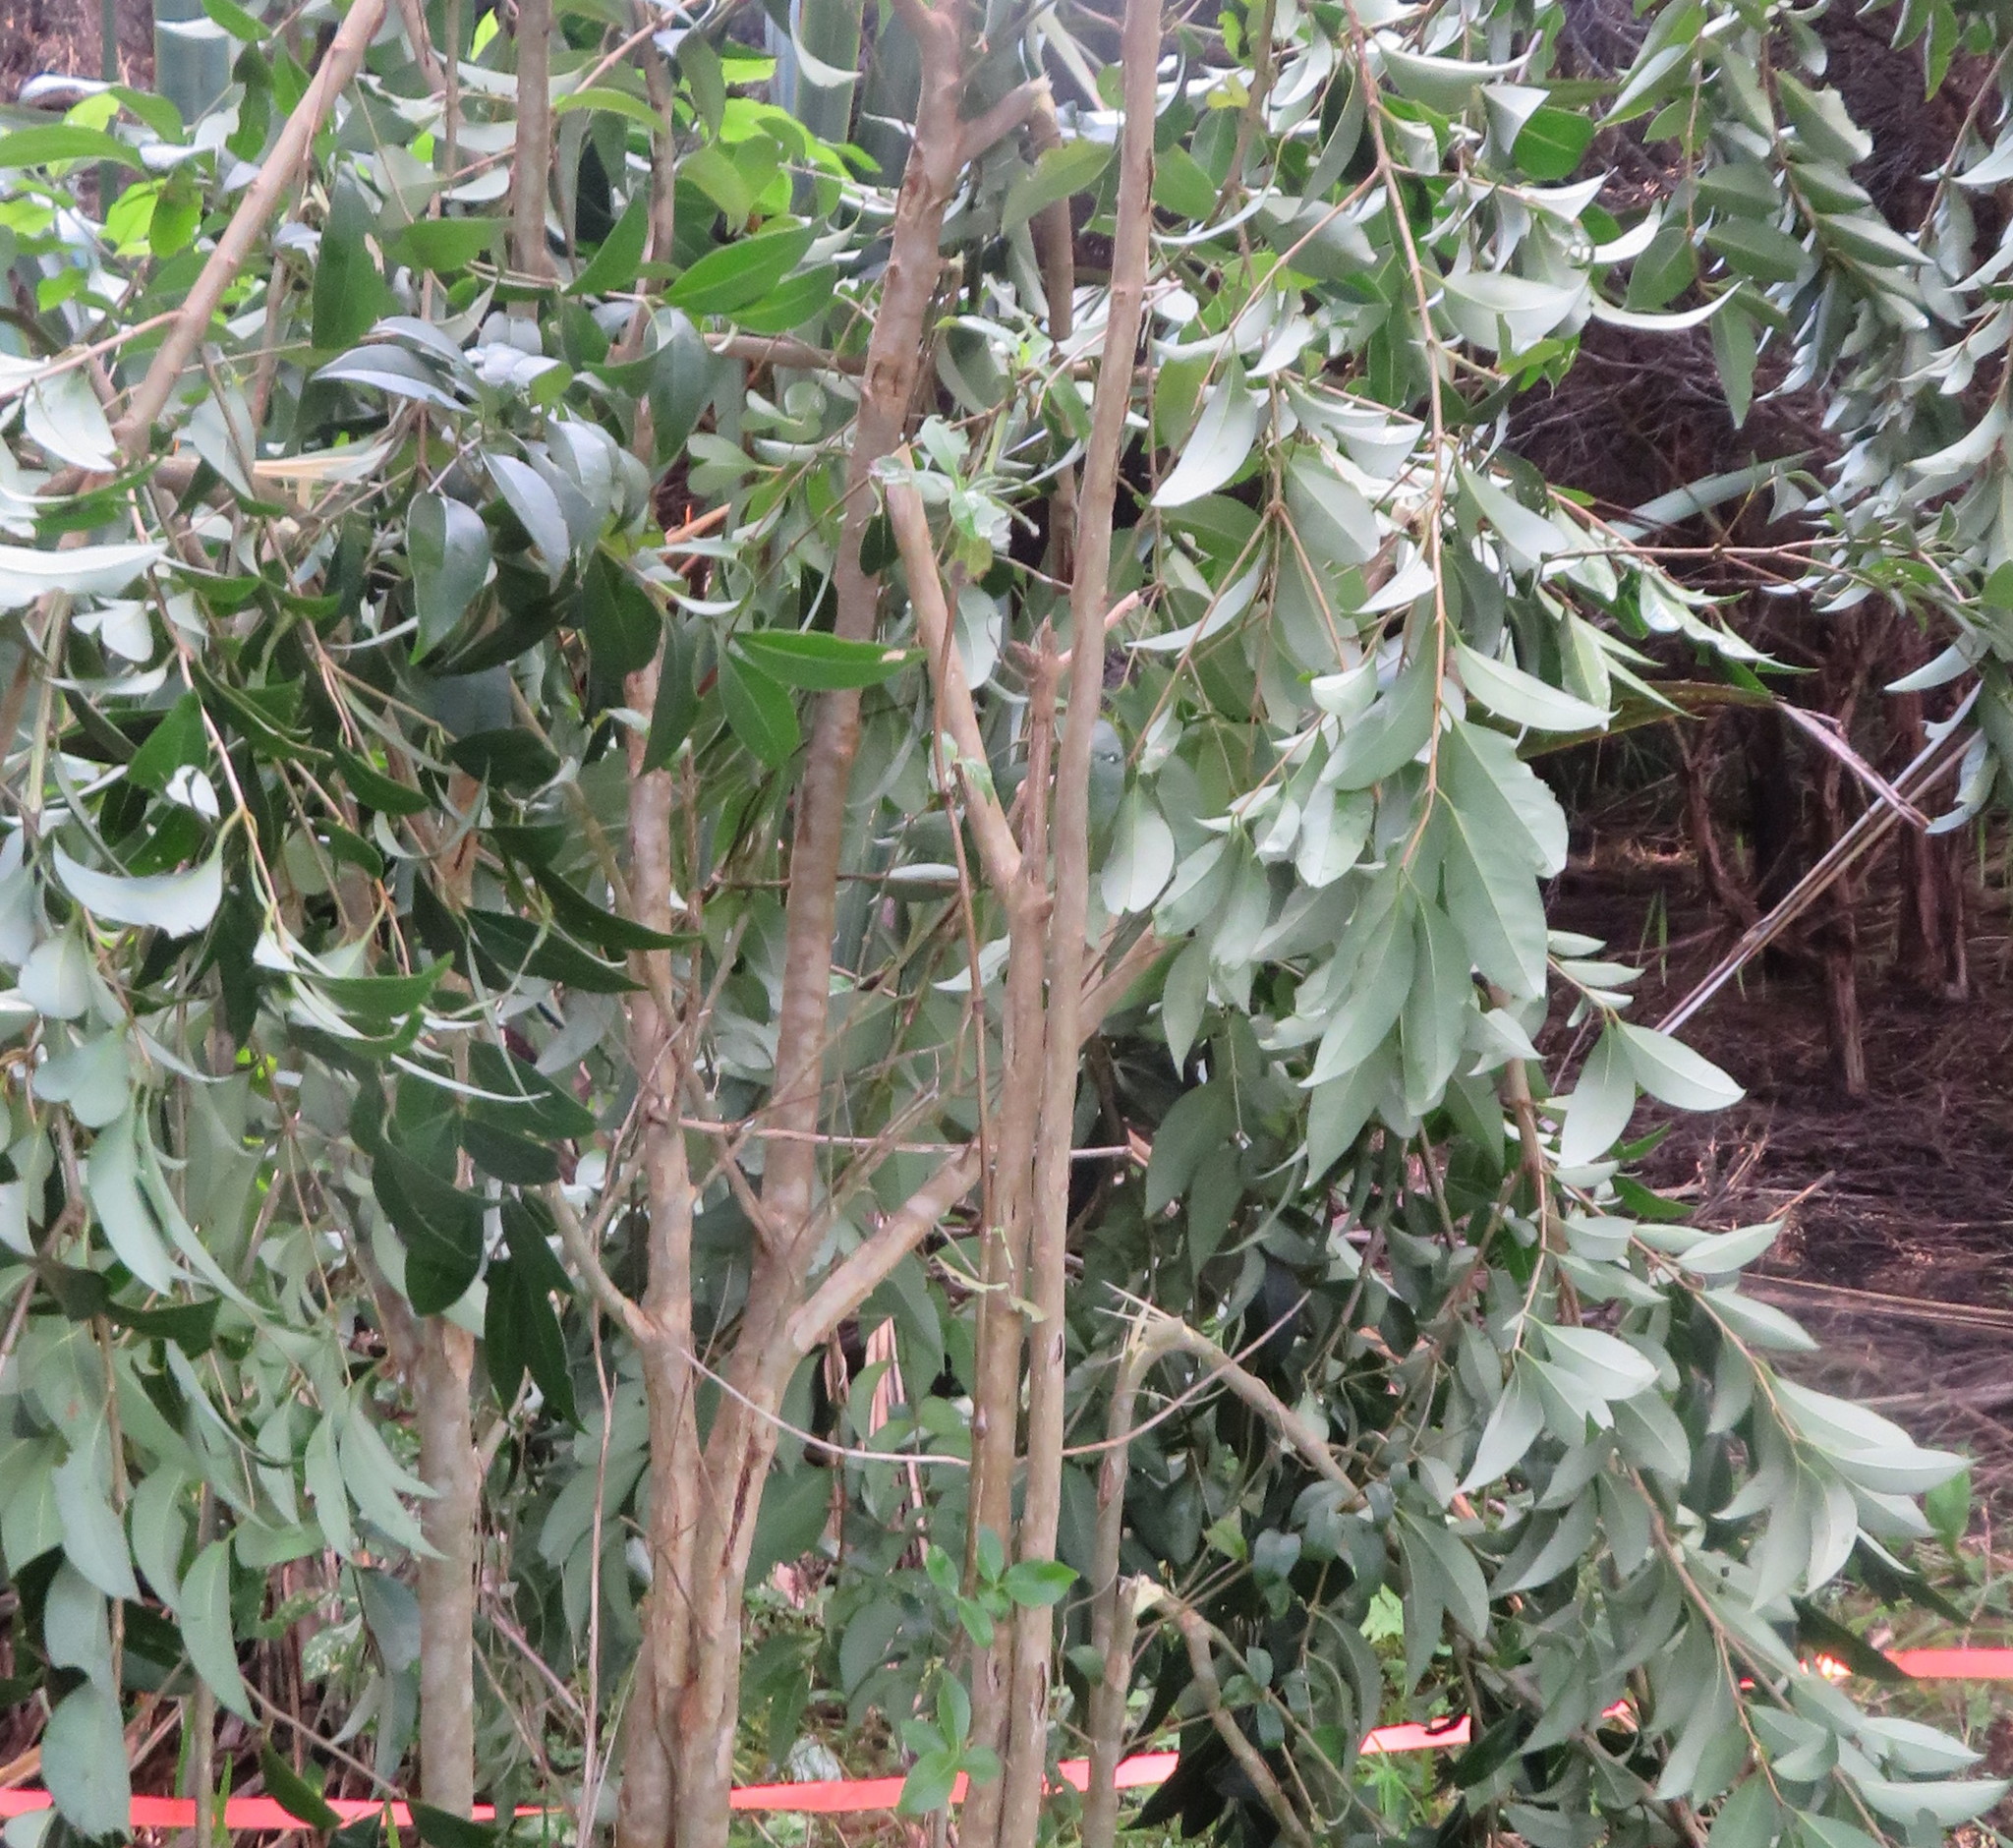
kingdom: Plantae
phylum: Tracheophyta
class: Magnoliopsida
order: Lamiales
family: Oleaceae
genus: Ligustrum
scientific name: Ligustrum lucidum
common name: Glossy privet
